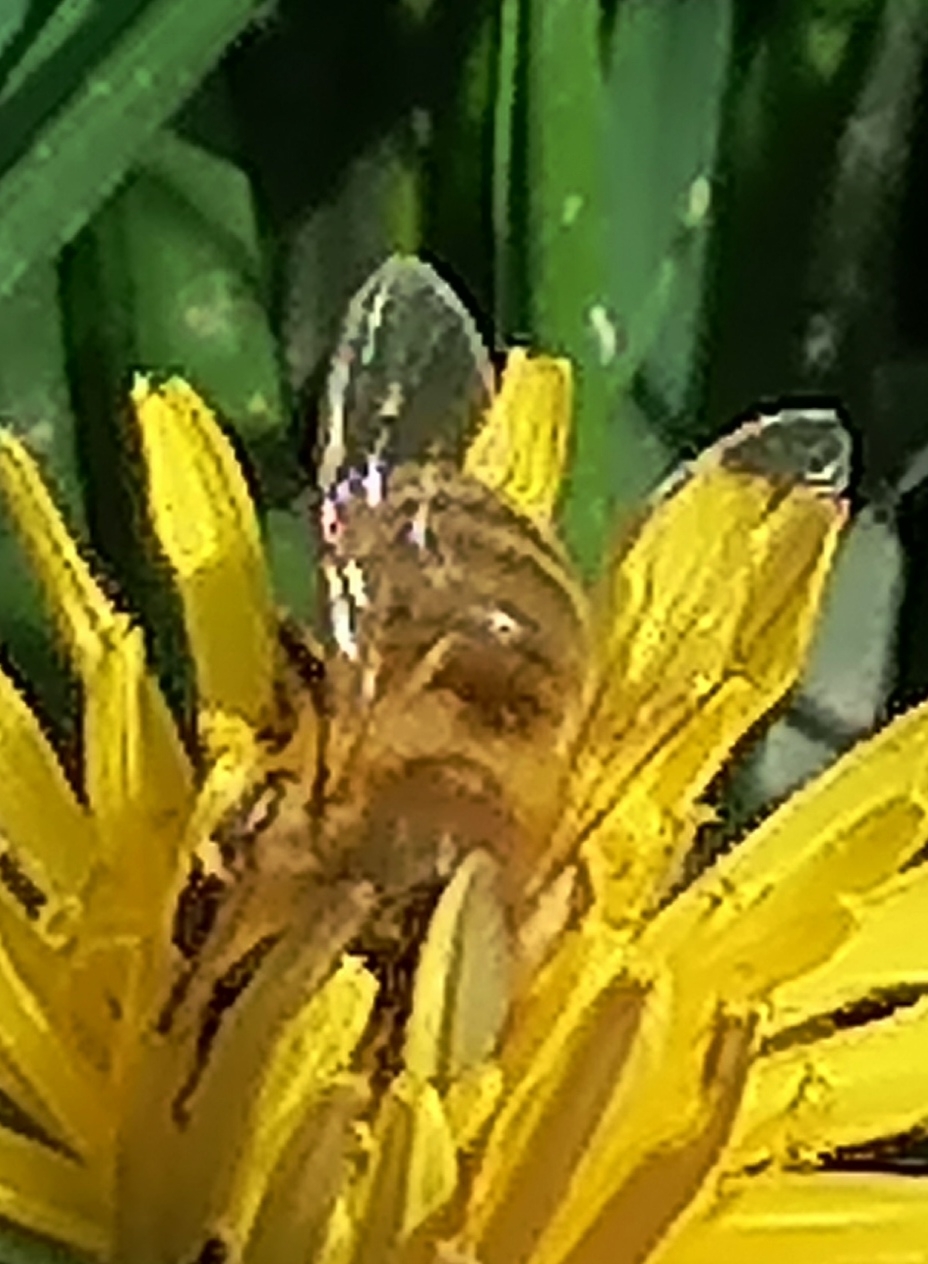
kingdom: Animalia
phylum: Arthropoda
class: Insecta
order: Hymenoptera
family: Apidae
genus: Apis
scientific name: Apis mellifera
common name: Honey bee
